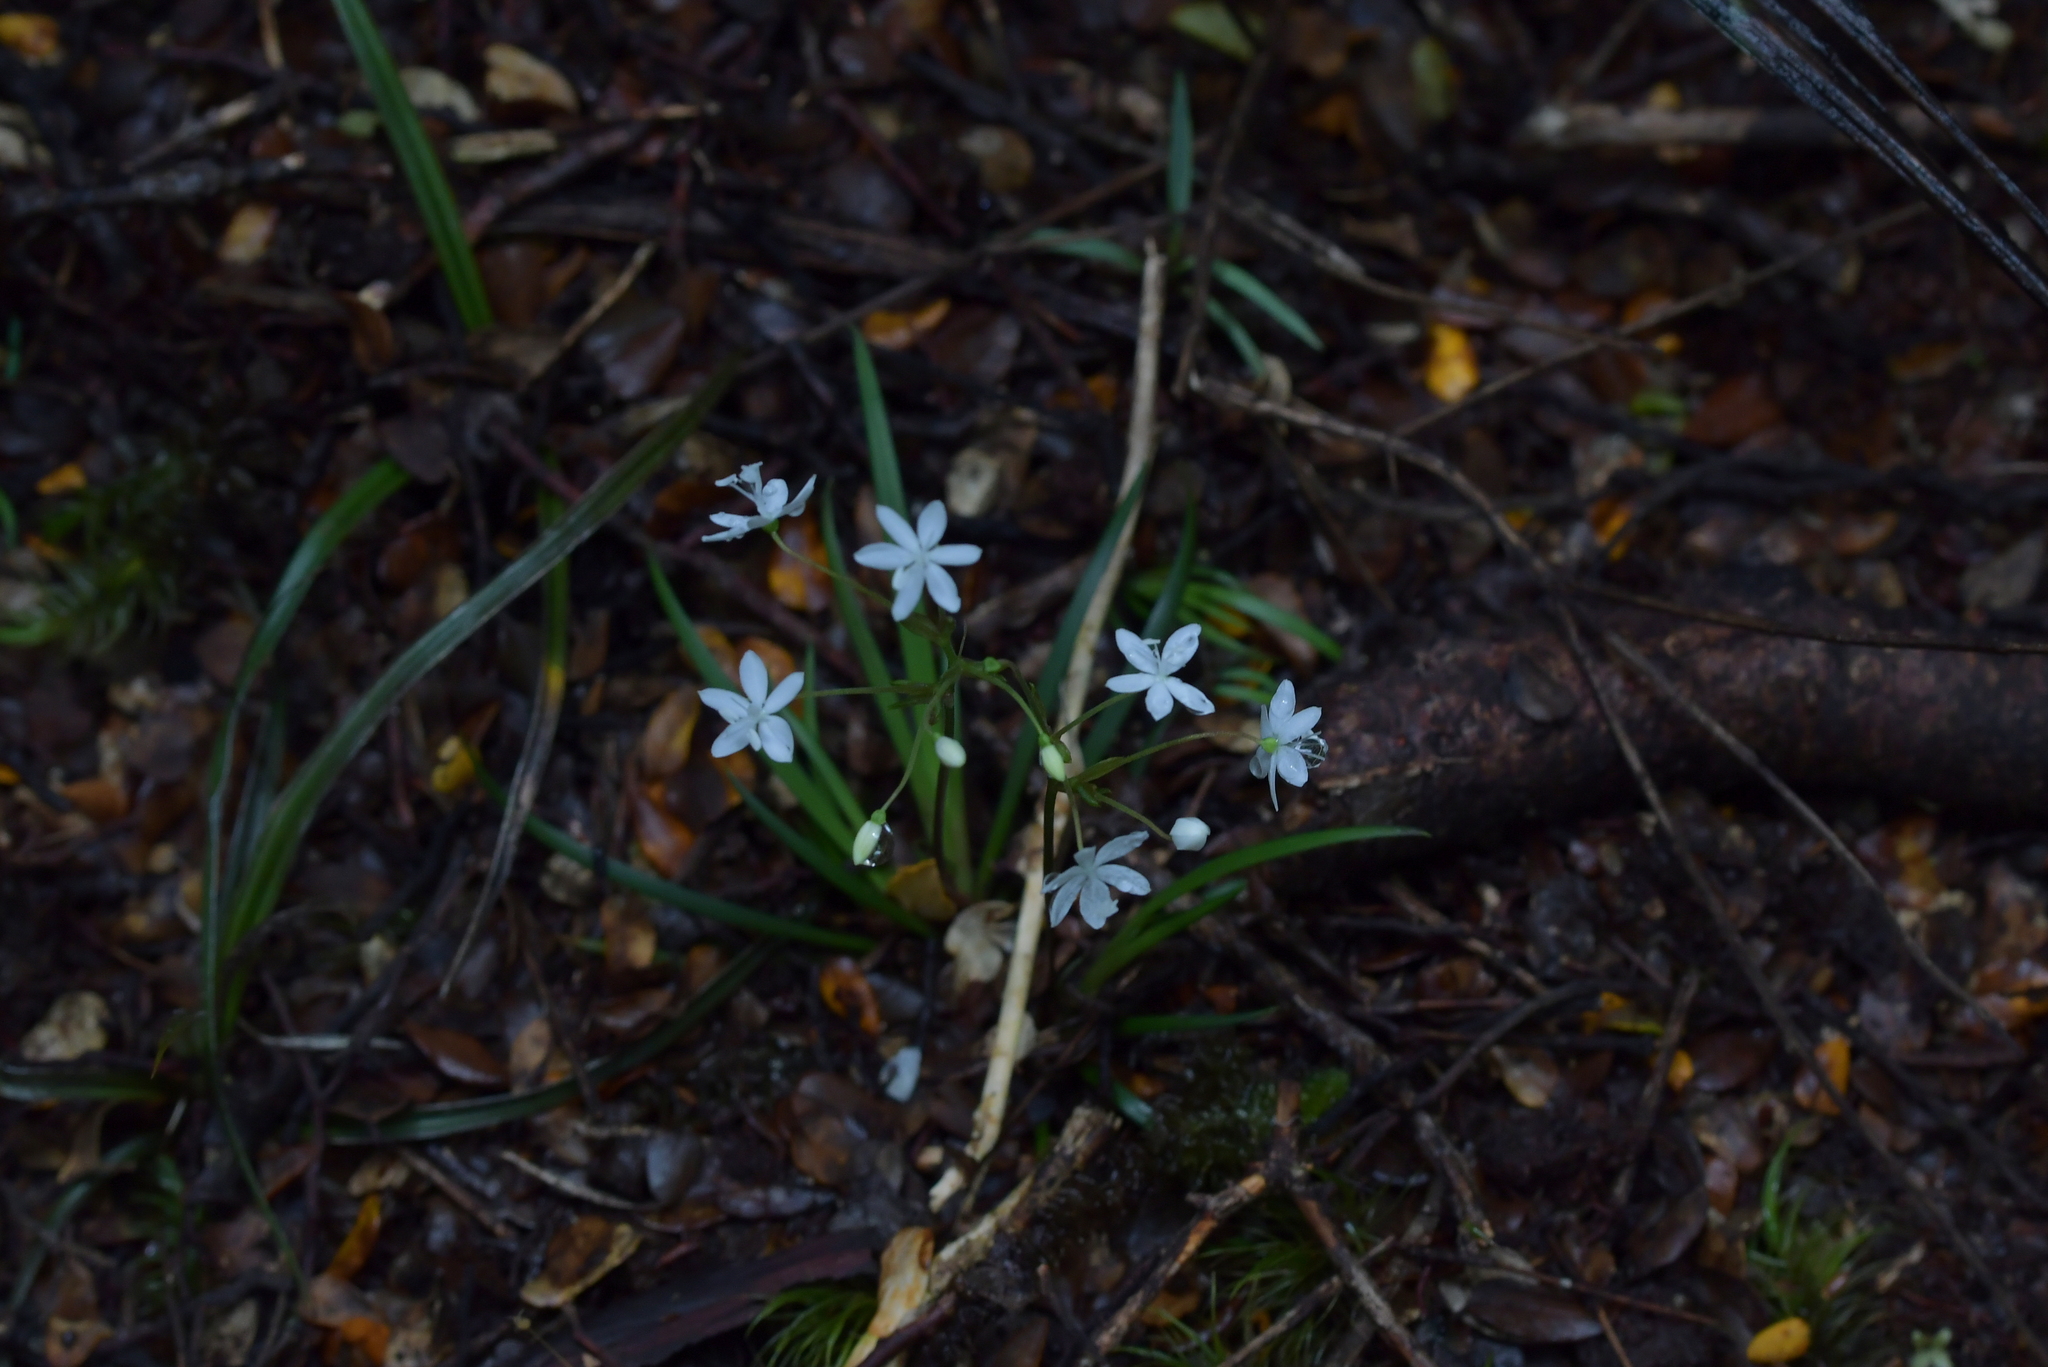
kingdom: Plantae
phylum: Tracheophyta
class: Liliopsida
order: Asparagales
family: Iridaceae
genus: Libertia
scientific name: Libertia micrantha
